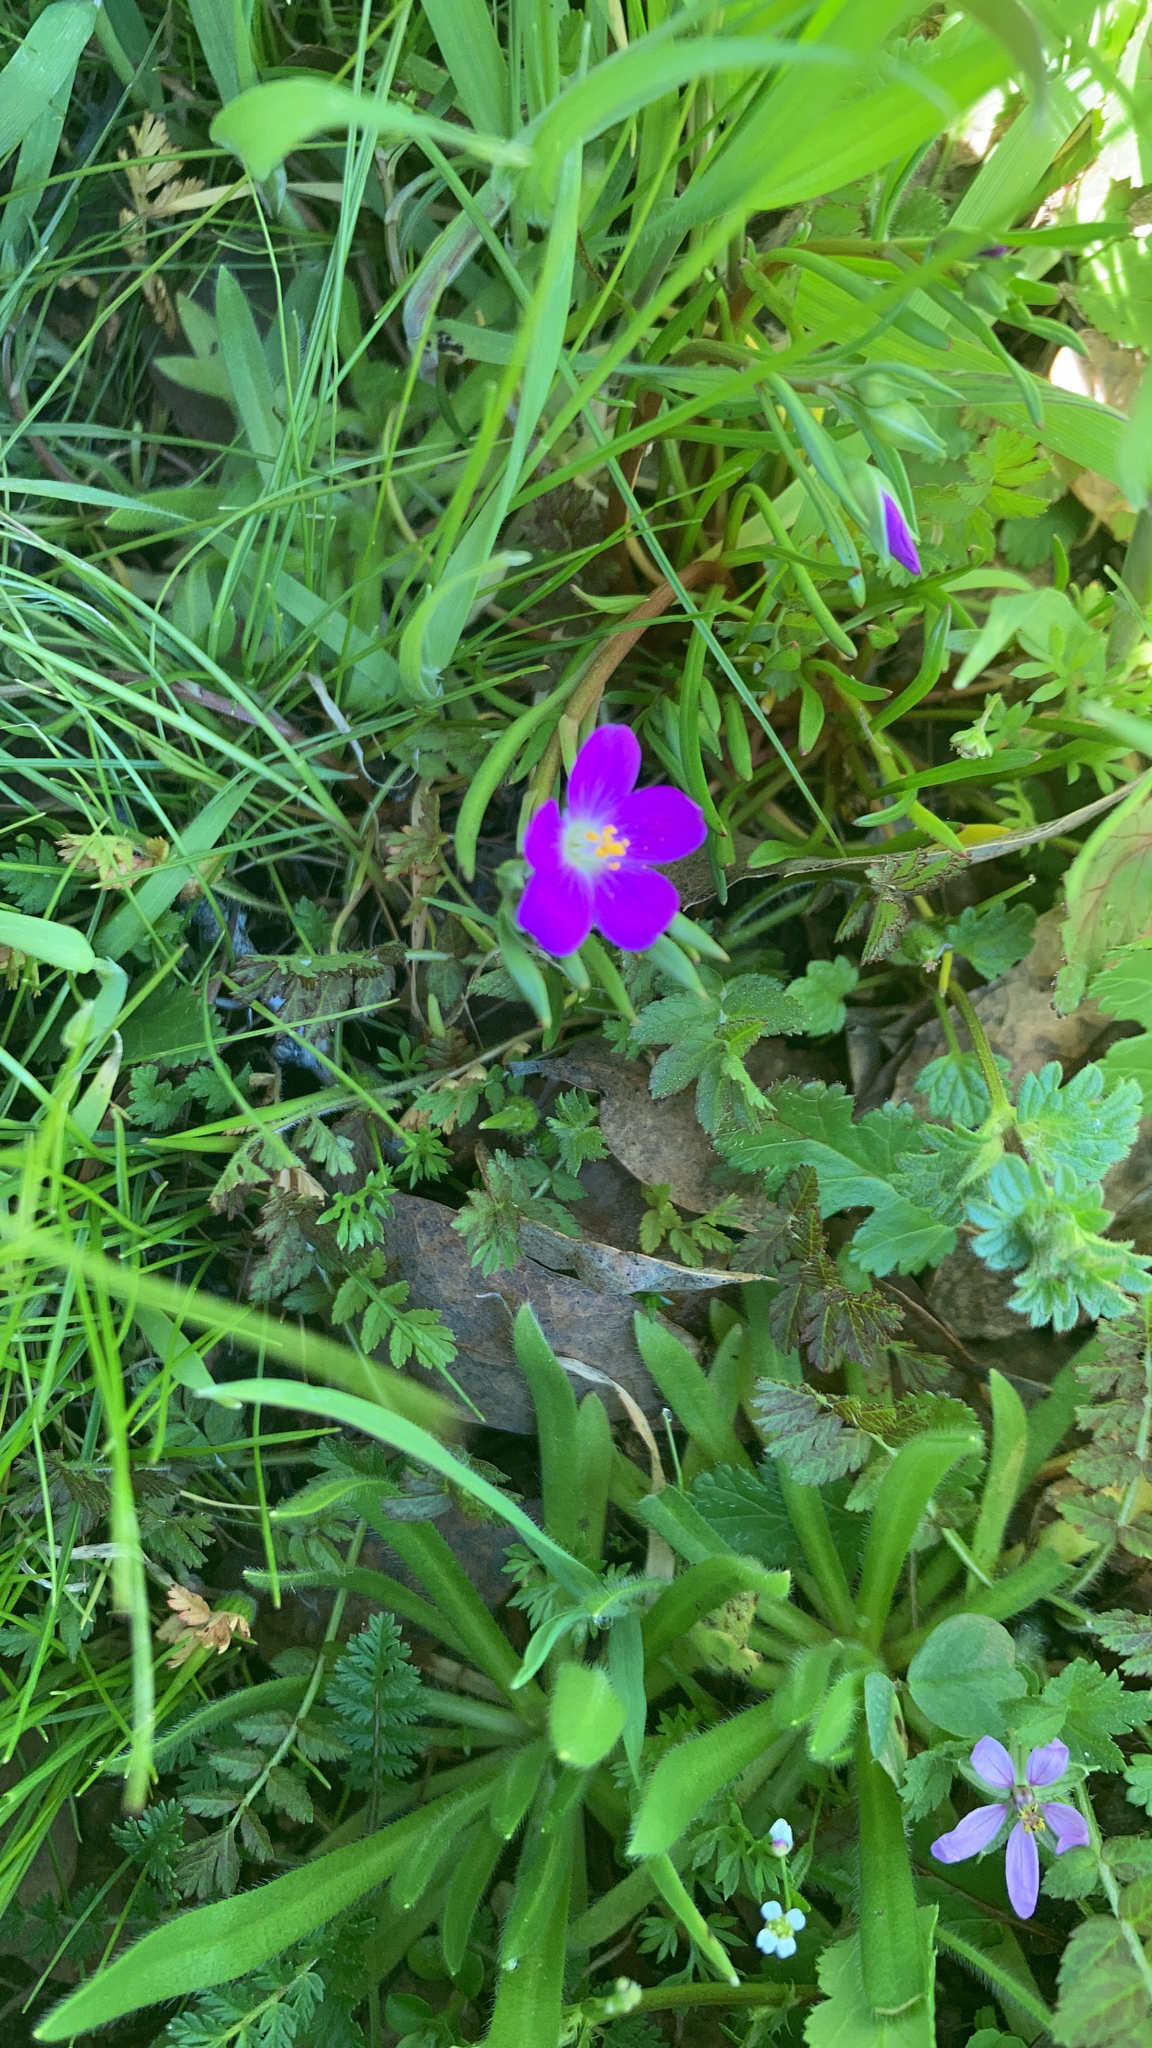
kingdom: Plantae
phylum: Tracheophyta
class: Magnoliopsida
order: Caryophyllales
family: Montiaceae
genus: Calandrinia
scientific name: Calandrinia menziesii
